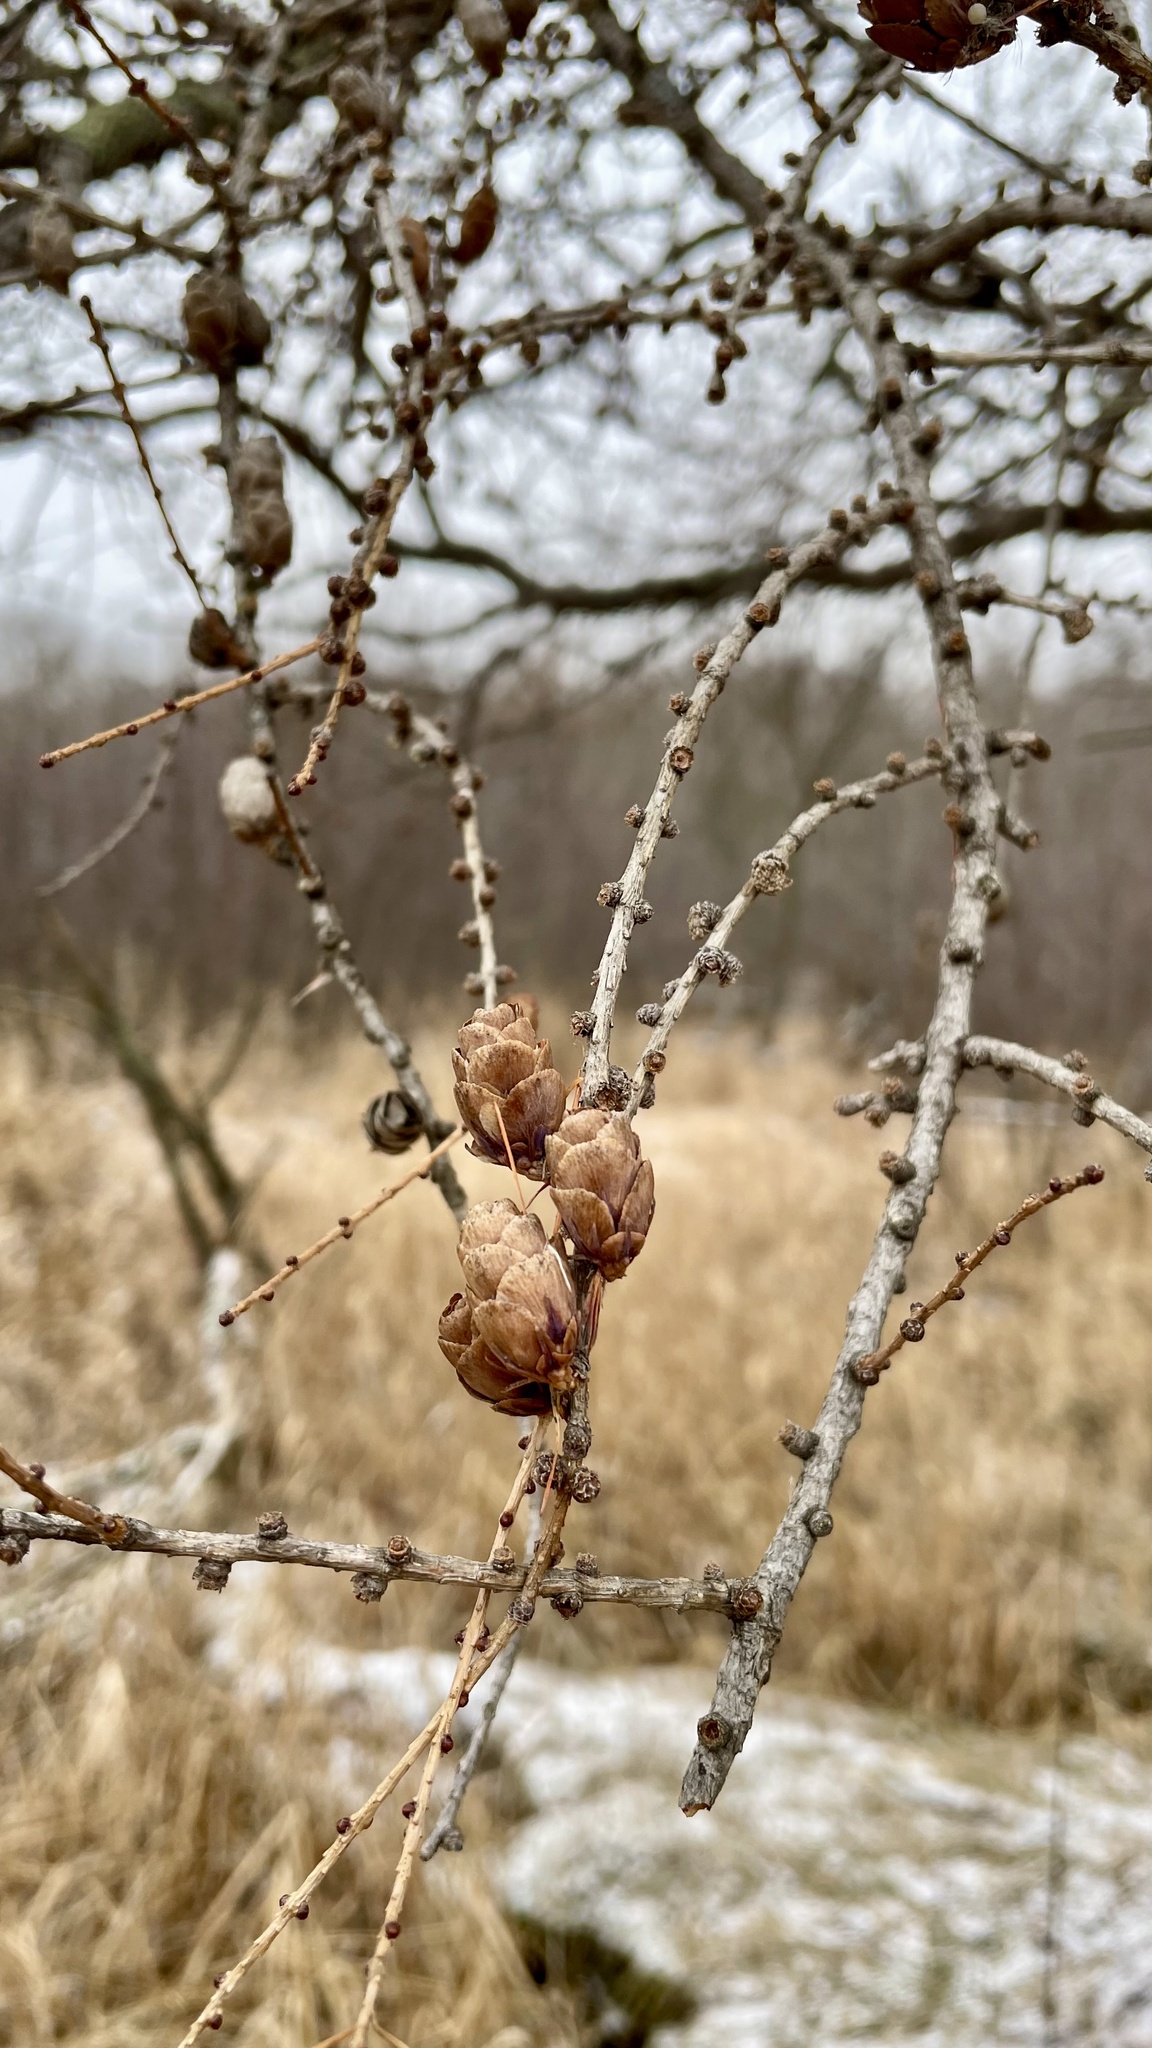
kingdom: Plantae
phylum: Tracheophyta
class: Pinopsida
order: Pinales
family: Pinaceae
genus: Larix
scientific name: Larix laricina
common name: American larch
